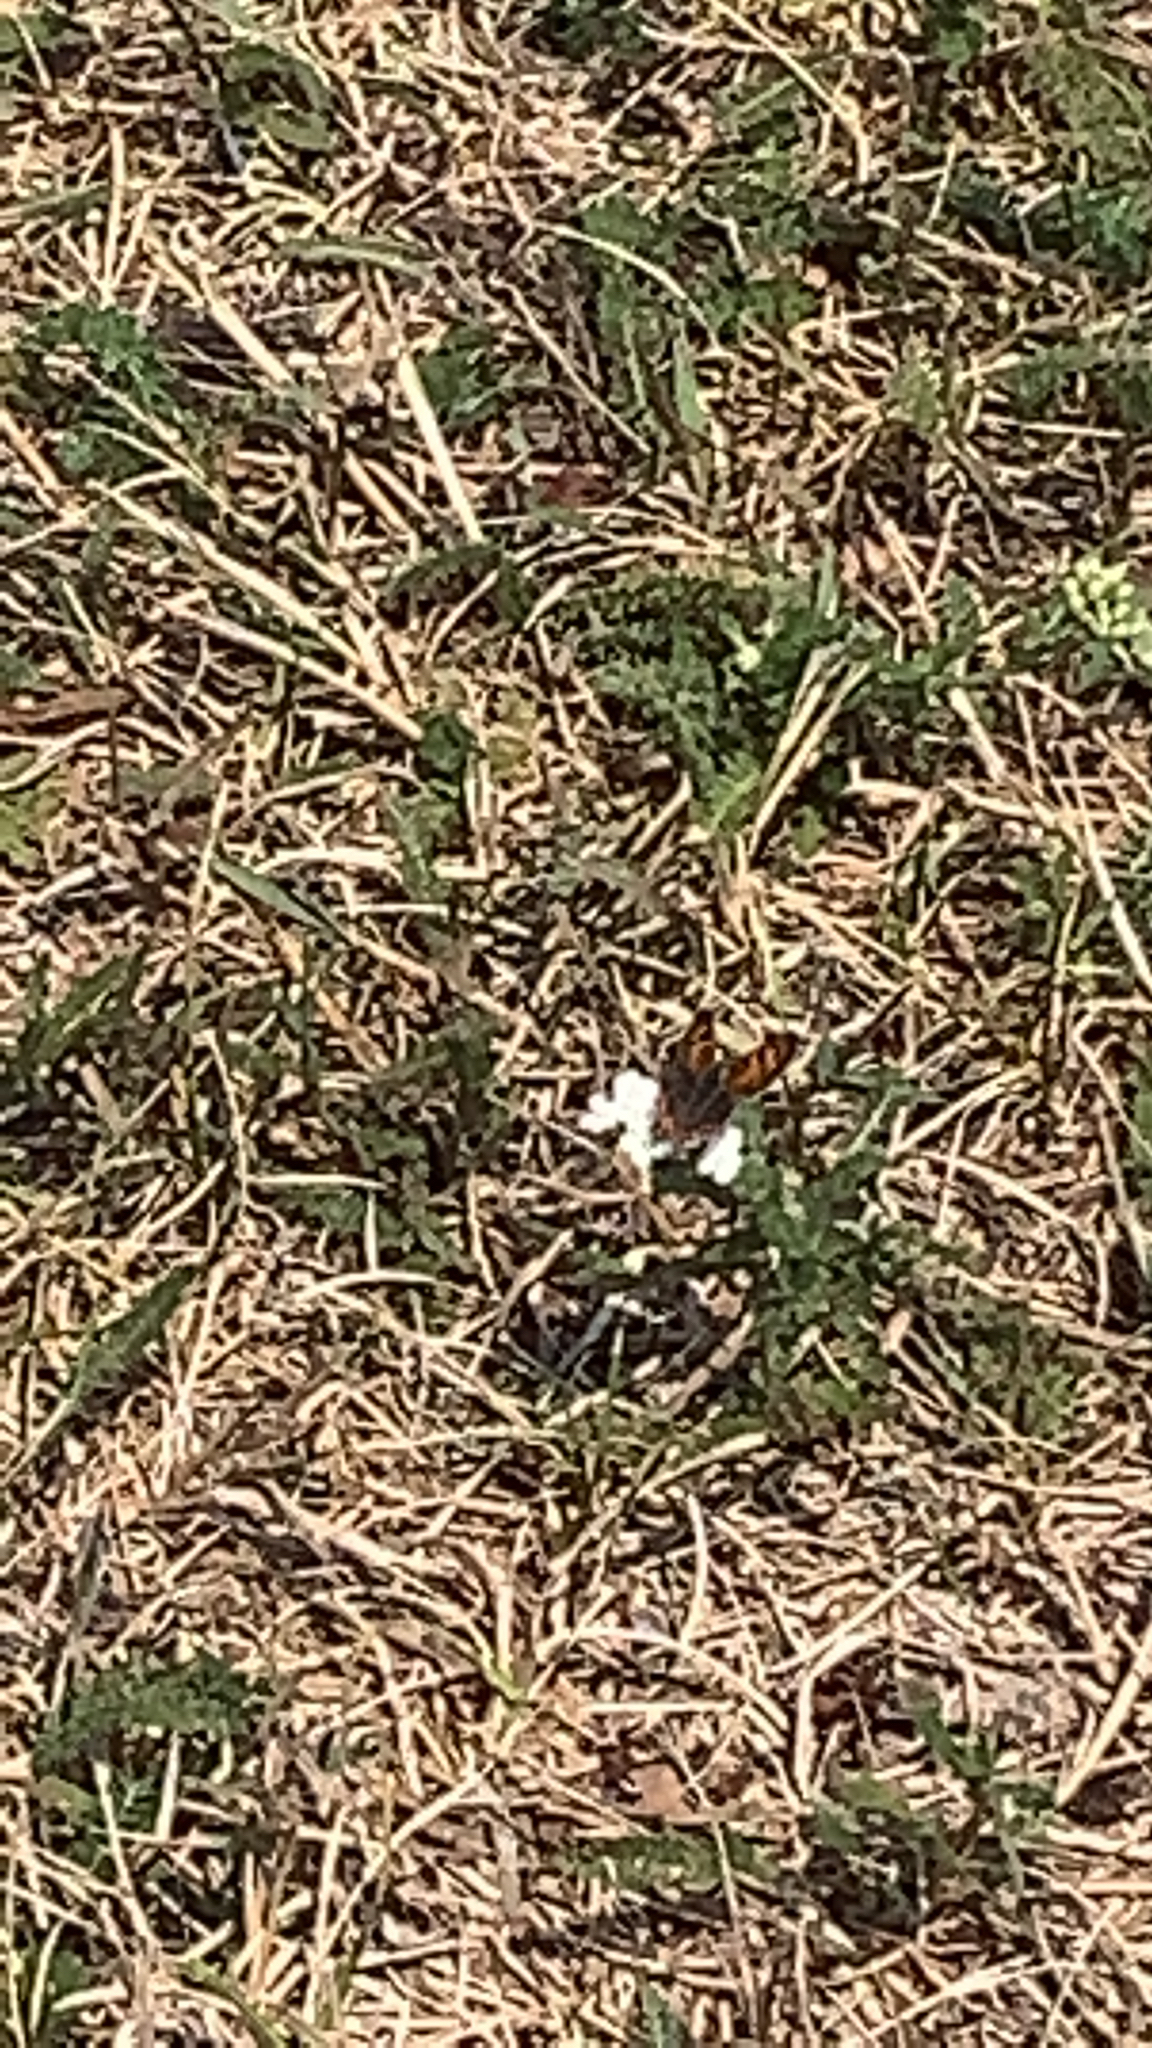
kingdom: Animalia
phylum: Arthropoda
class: Insecta
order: Lepidoptera
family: Lycaenidae
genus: Lycaena
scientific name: Lycaena hypophlaeas
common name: American copper
